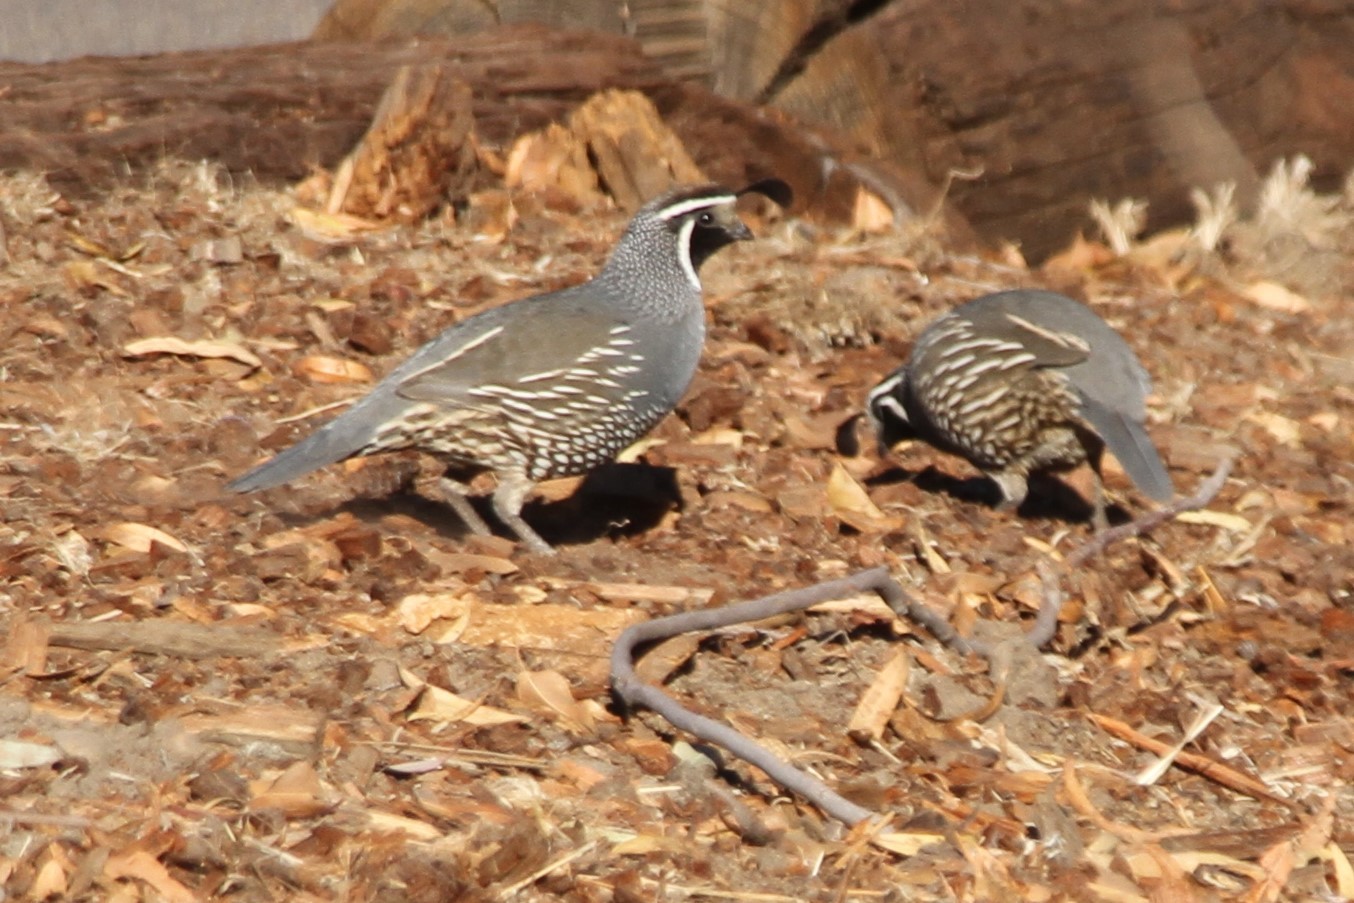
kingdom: Animalia
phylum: Chordata
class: Aves
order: Galliformes
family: Odontophoridae
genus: Callipepla
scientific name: Callipepla californica
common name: California quail
